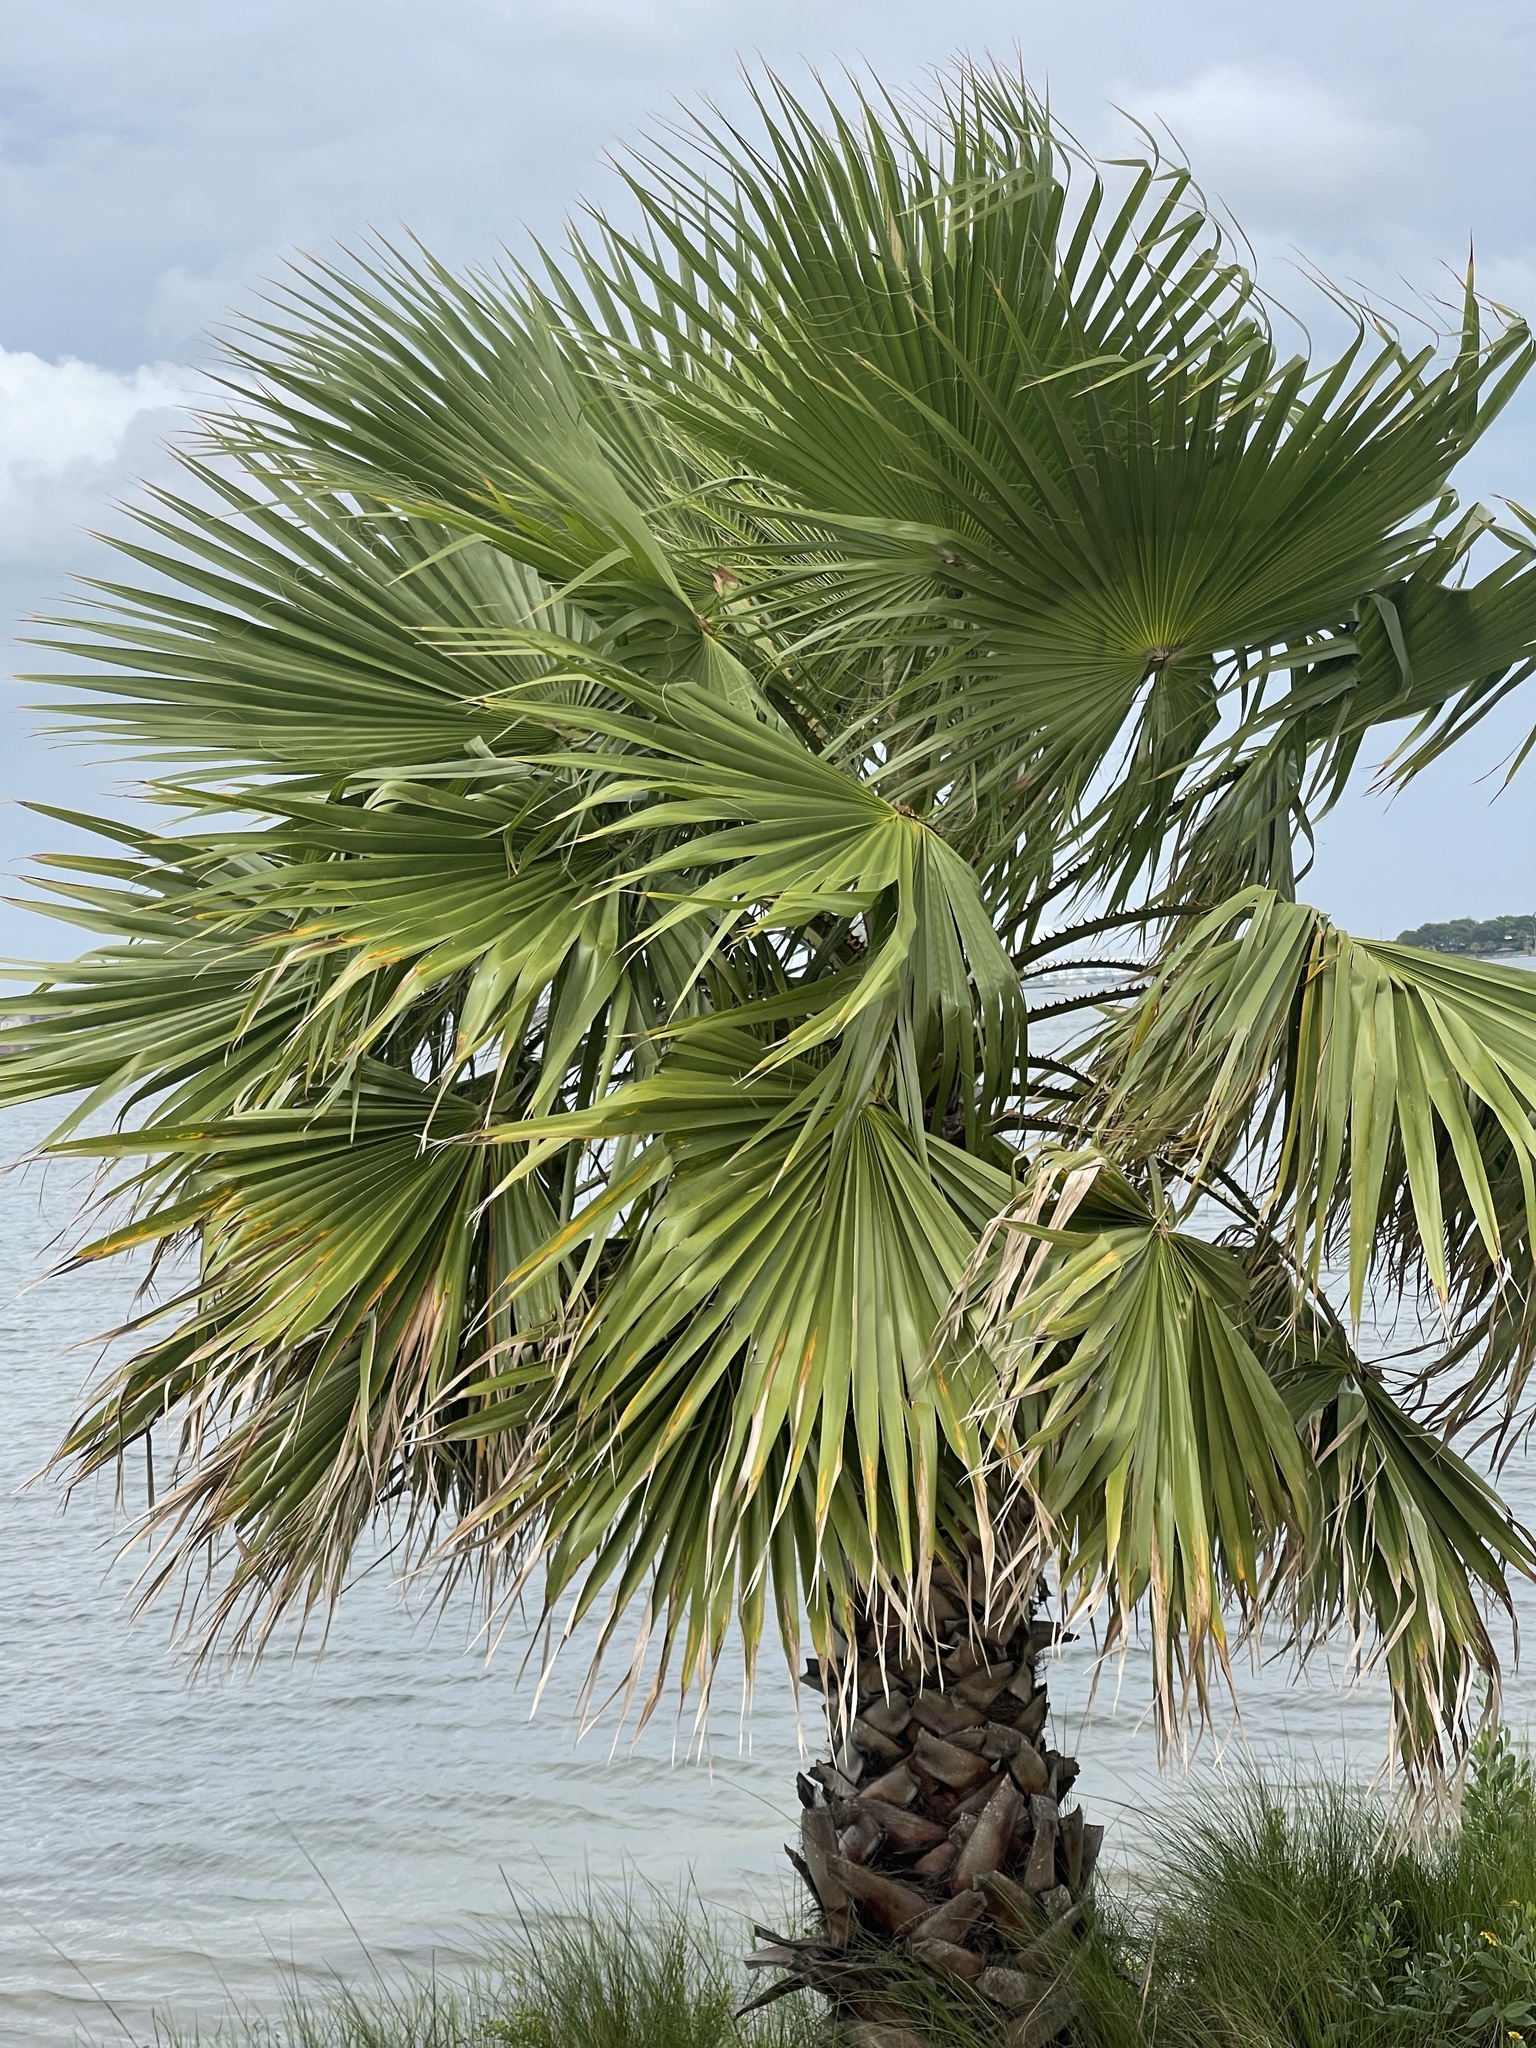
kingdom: Plantae
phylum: Tracheophyta
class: Liliopsida
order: Arecales
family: Arecaceae
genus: Washingtonia
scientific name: Washingtonia robusta
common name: Mexican fan palm
